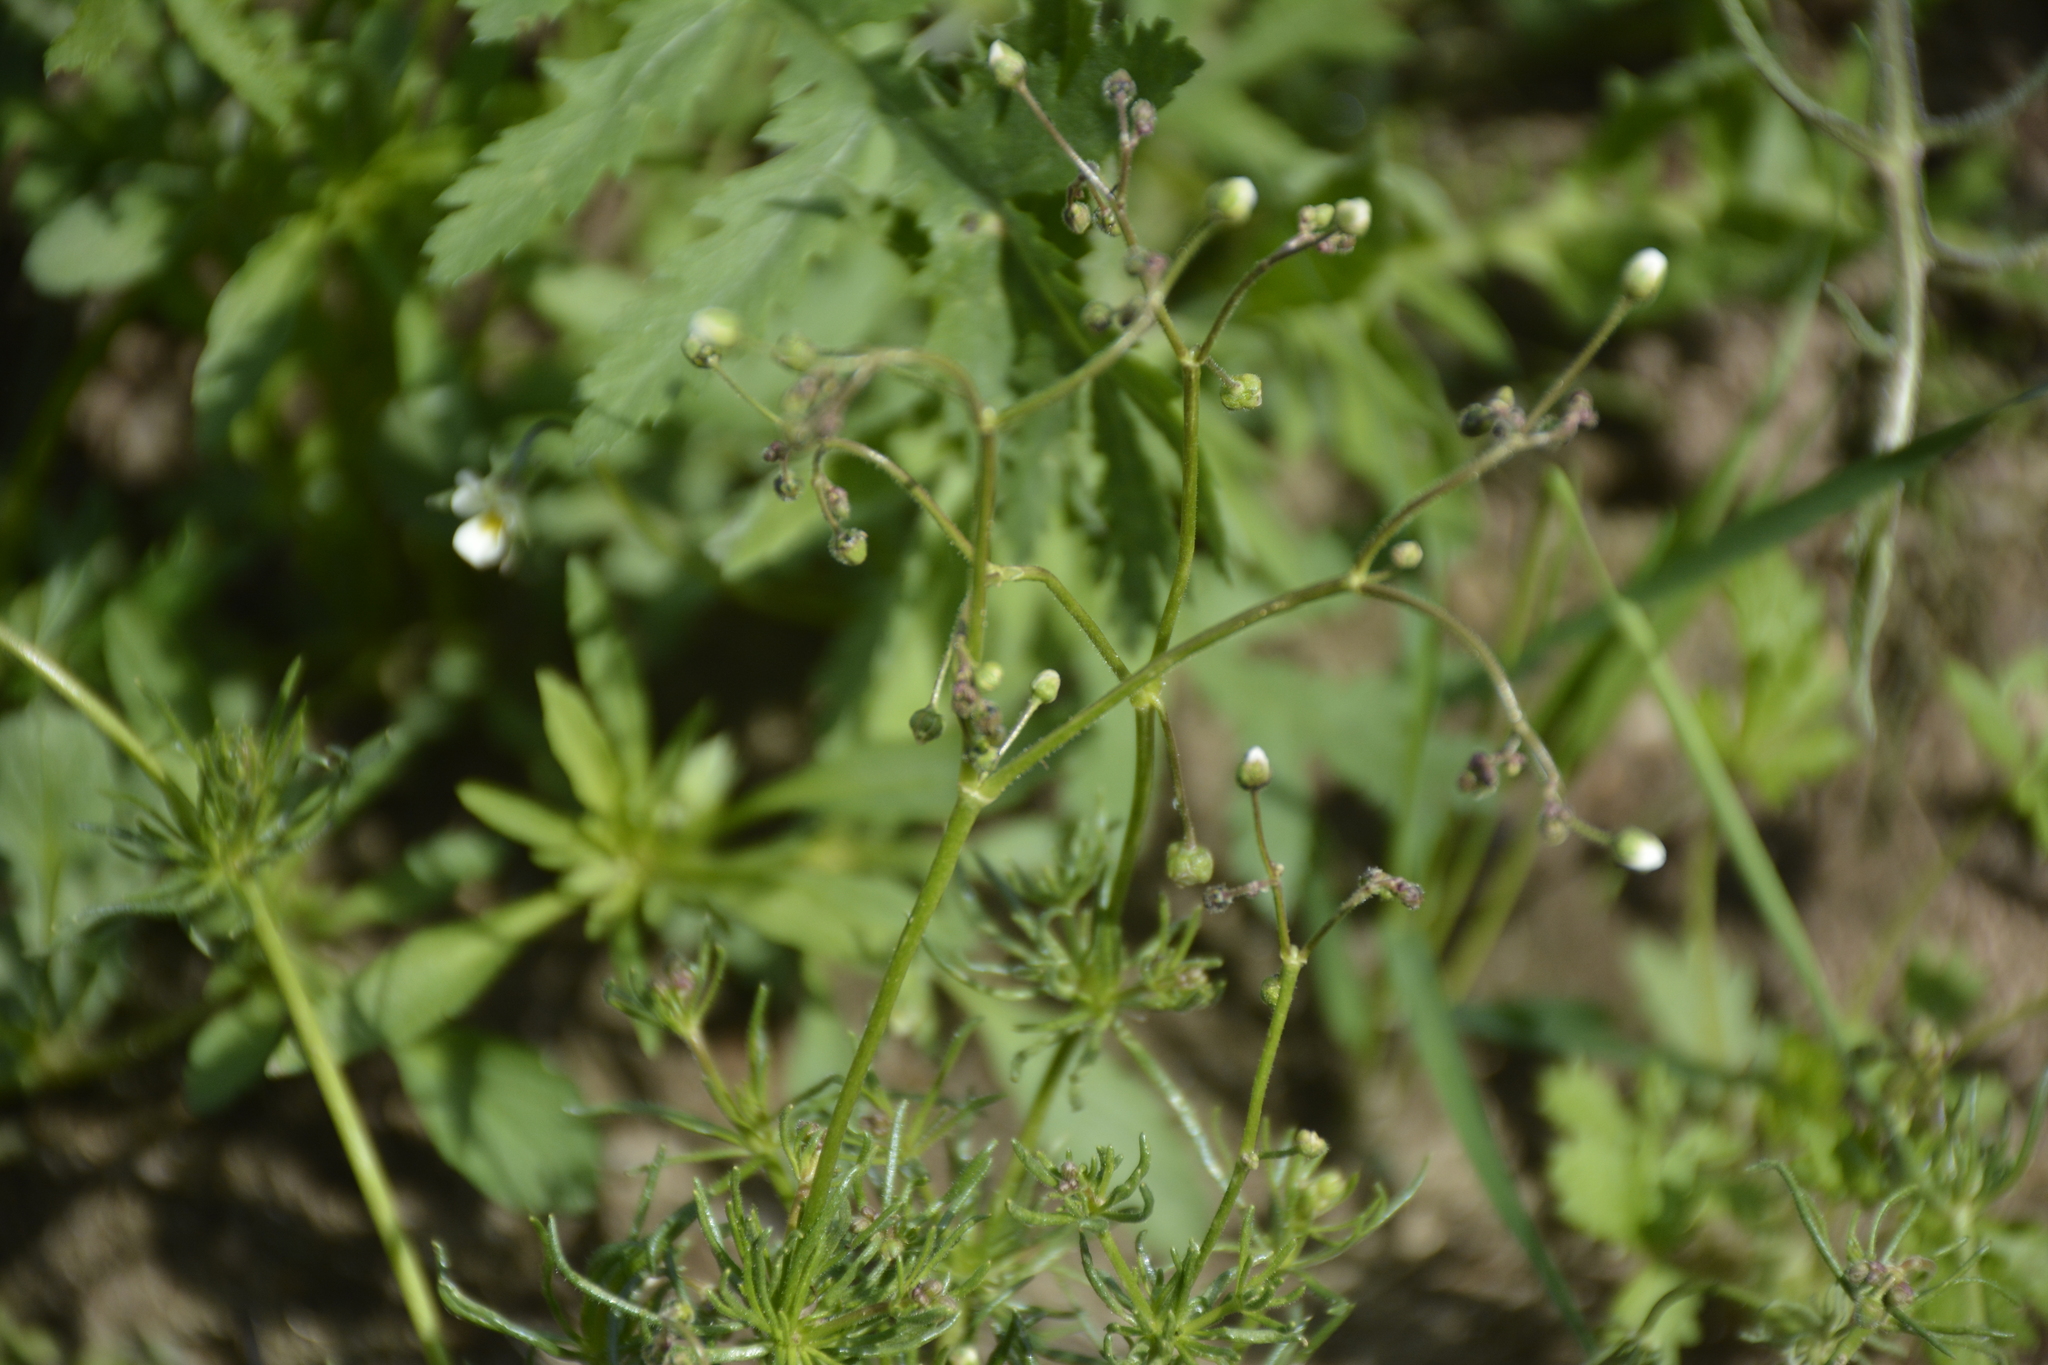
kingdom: Plantae
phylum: Tracheophyta
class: Magnoliopsida
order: Caryophyllales
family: Caryophyllaceae
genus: Spergula
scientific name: Spergula arvensis
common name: Corn spurrey
